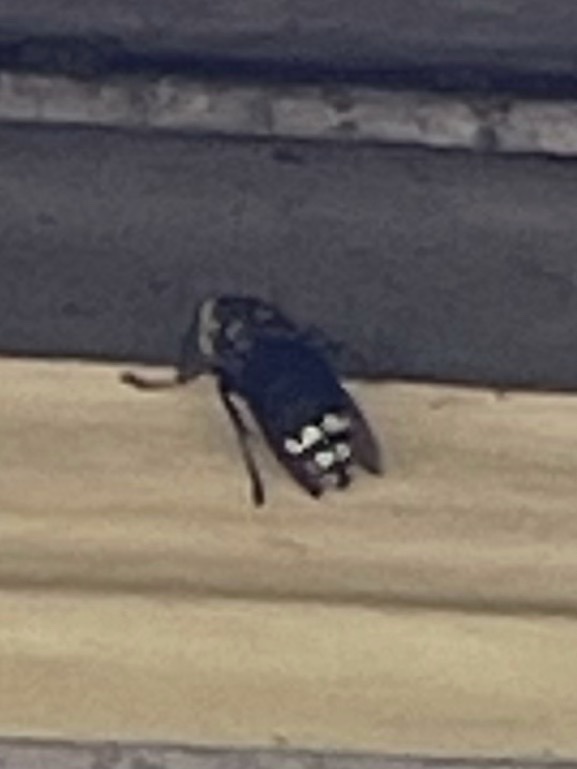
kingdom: Animalia
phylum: Arthropoda
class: Insecta
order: Hymenoptera
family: Vespidae
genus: Dolichovespula
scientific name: Dolichovespula maculata
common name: Bald-faced hornet
